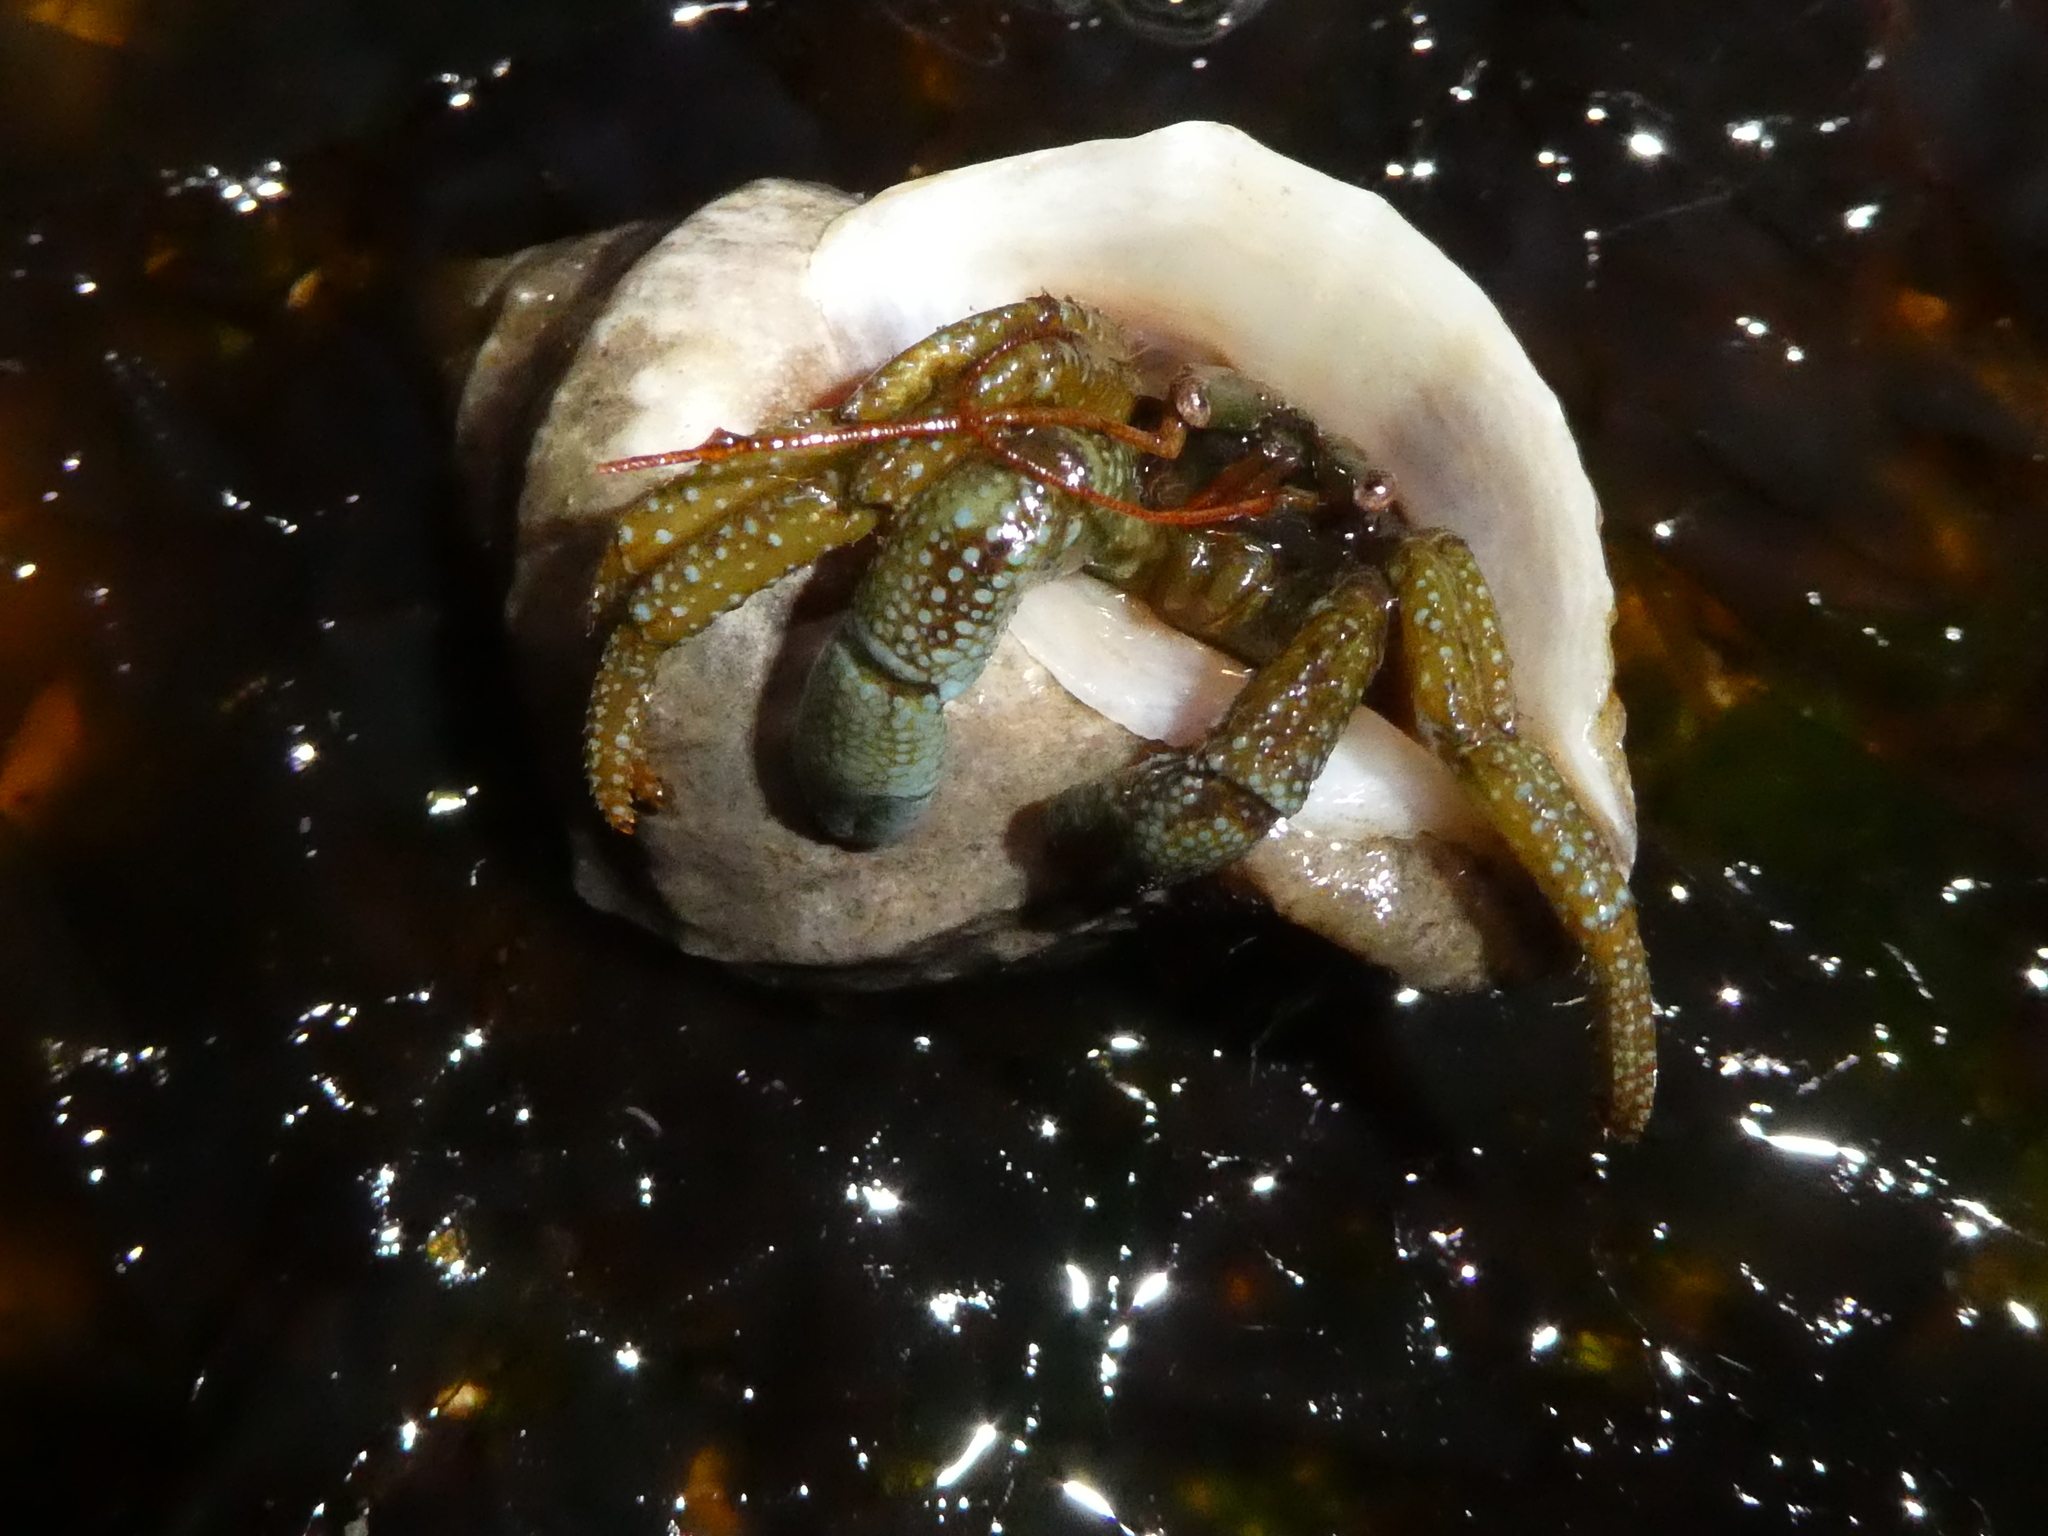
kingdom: Animalia
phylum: Arthropoda
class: Malacostraca
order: Decapoda
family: Paguridae
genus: Pagurus
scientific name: Pagurus granosimanus
